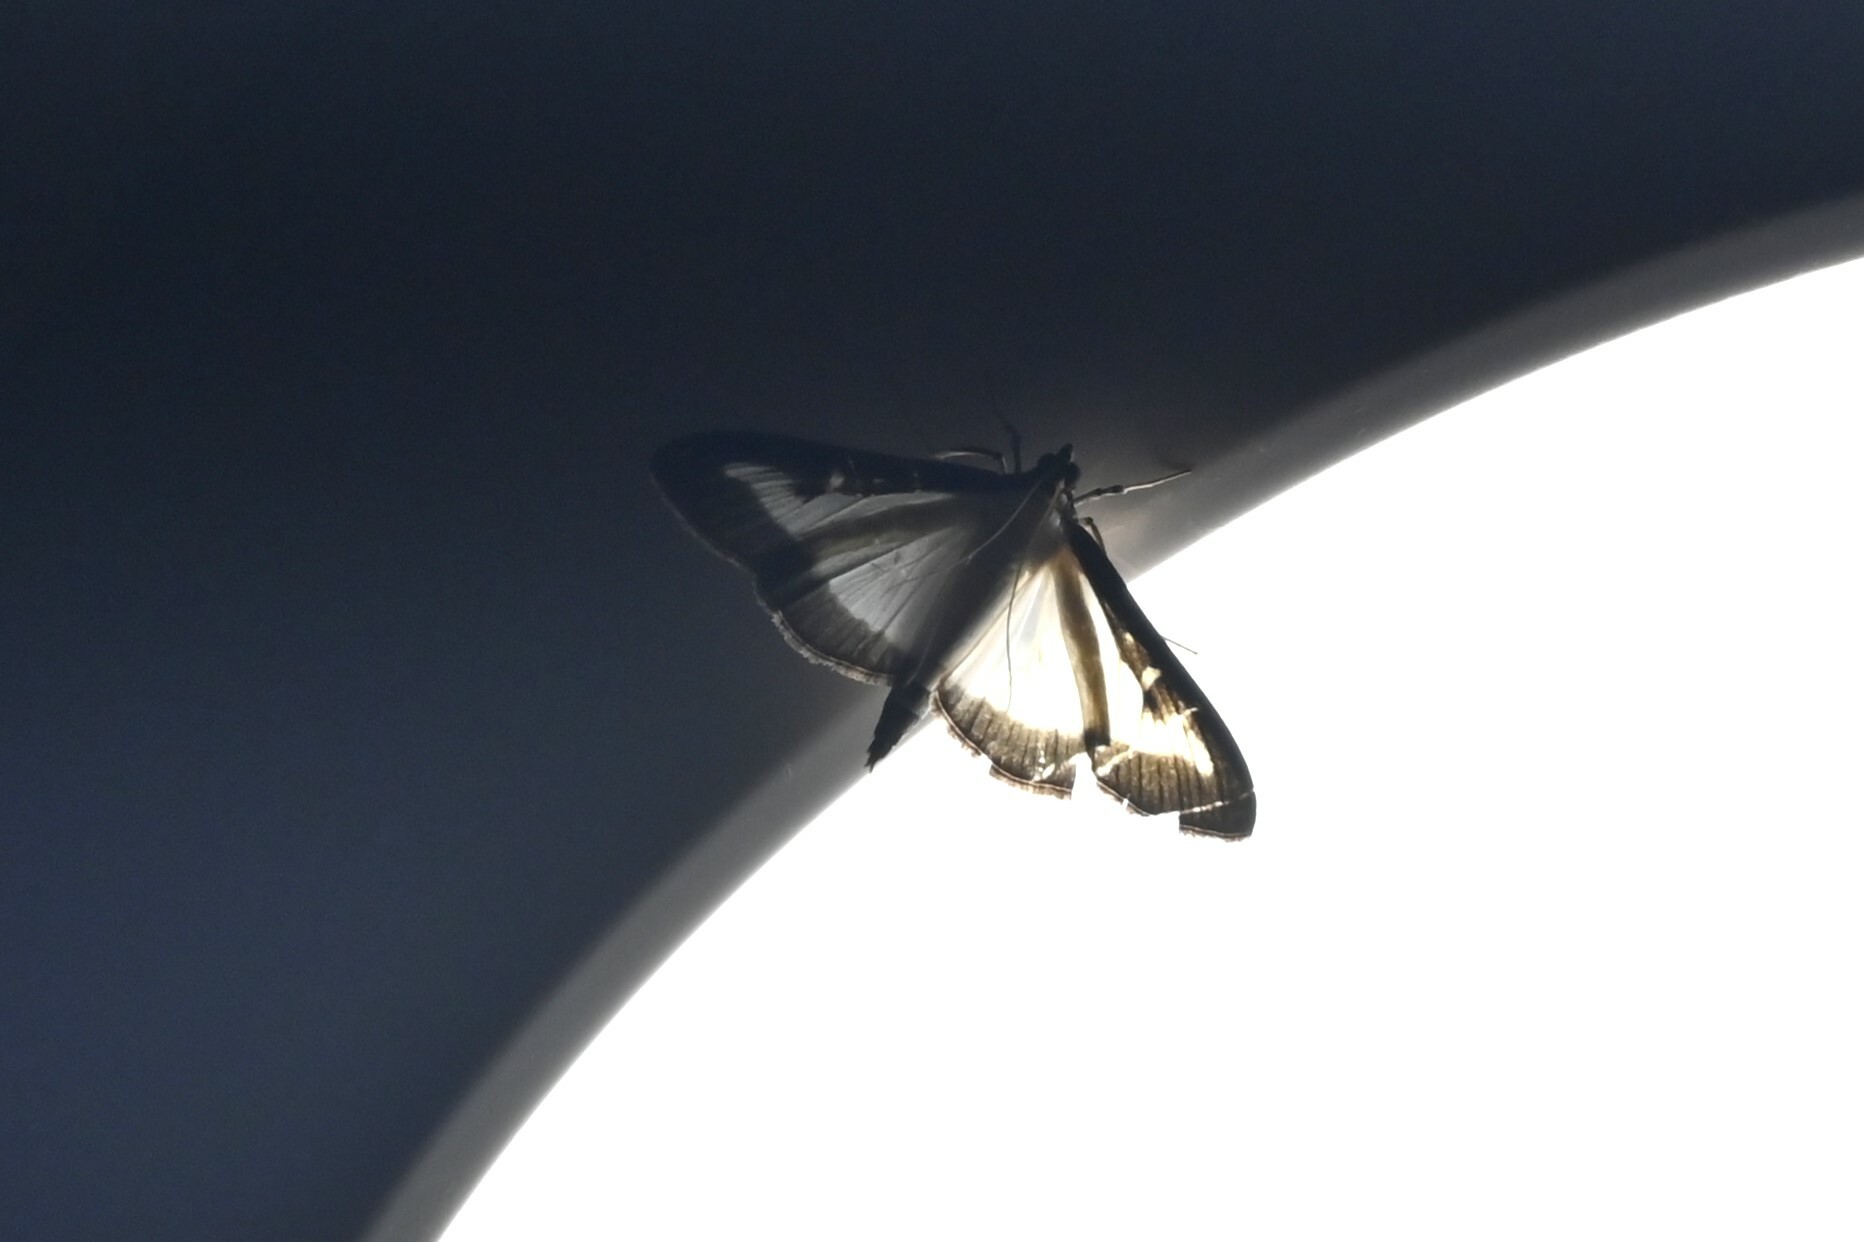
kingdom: Animalia
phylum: Arthropoda
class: Insecta
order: Lepidoptera
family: Crambidae
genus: Cydalima
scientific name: Cydalima perspectalis
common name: Box tree moth
